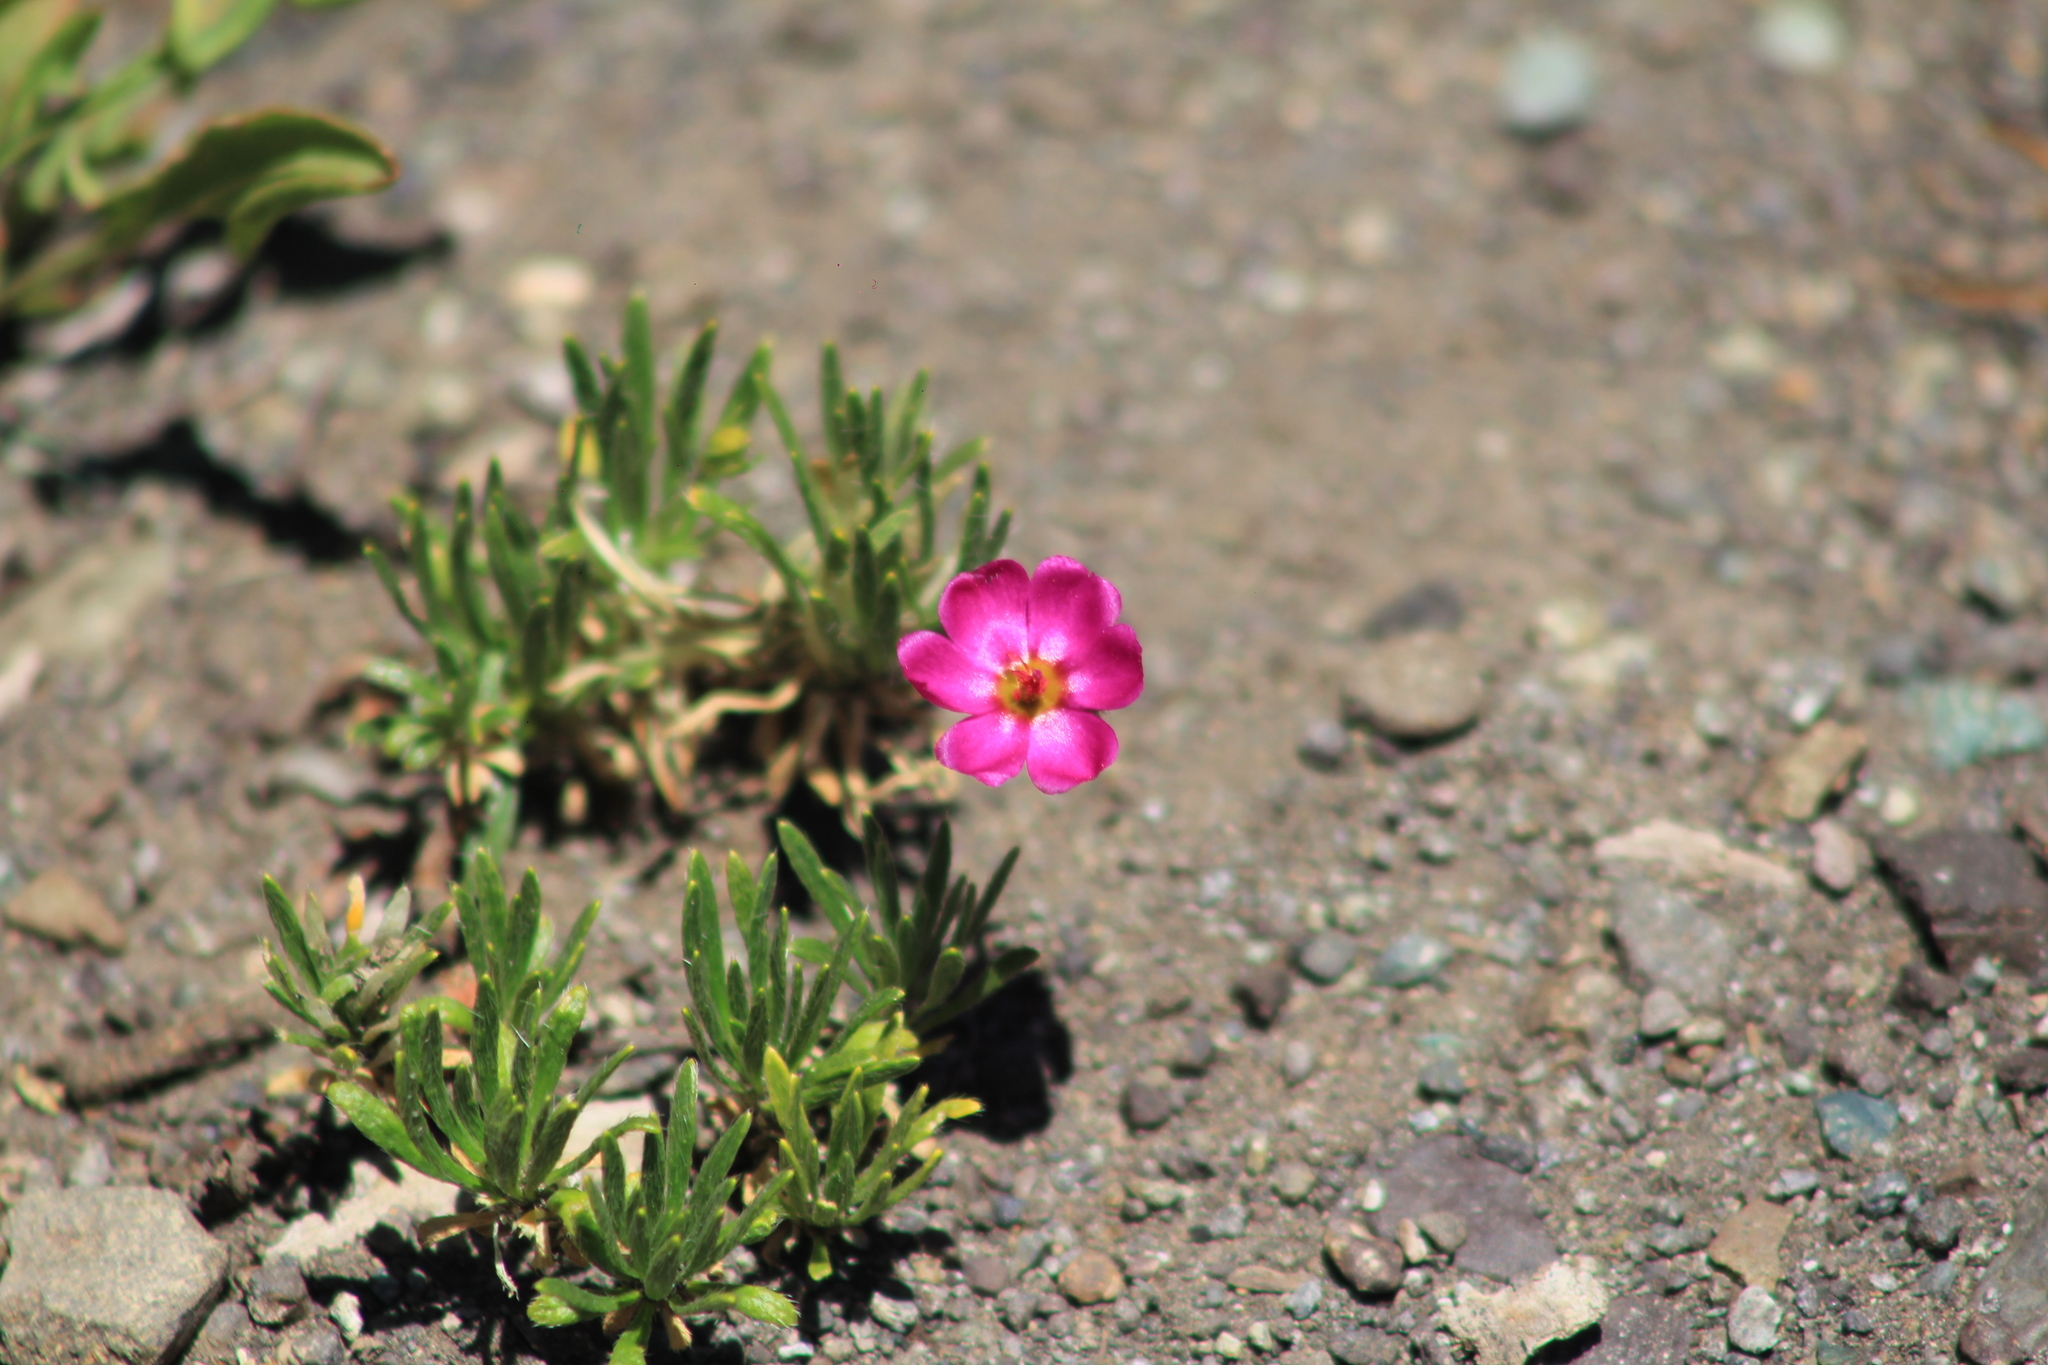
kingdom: Plantae
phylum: Tracheophyta
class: Magnoliopsida
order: Caryophyllales
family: Montiaceae
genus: Montiopsis
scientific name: Montiopsis umbellata
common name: Rock-purslane
